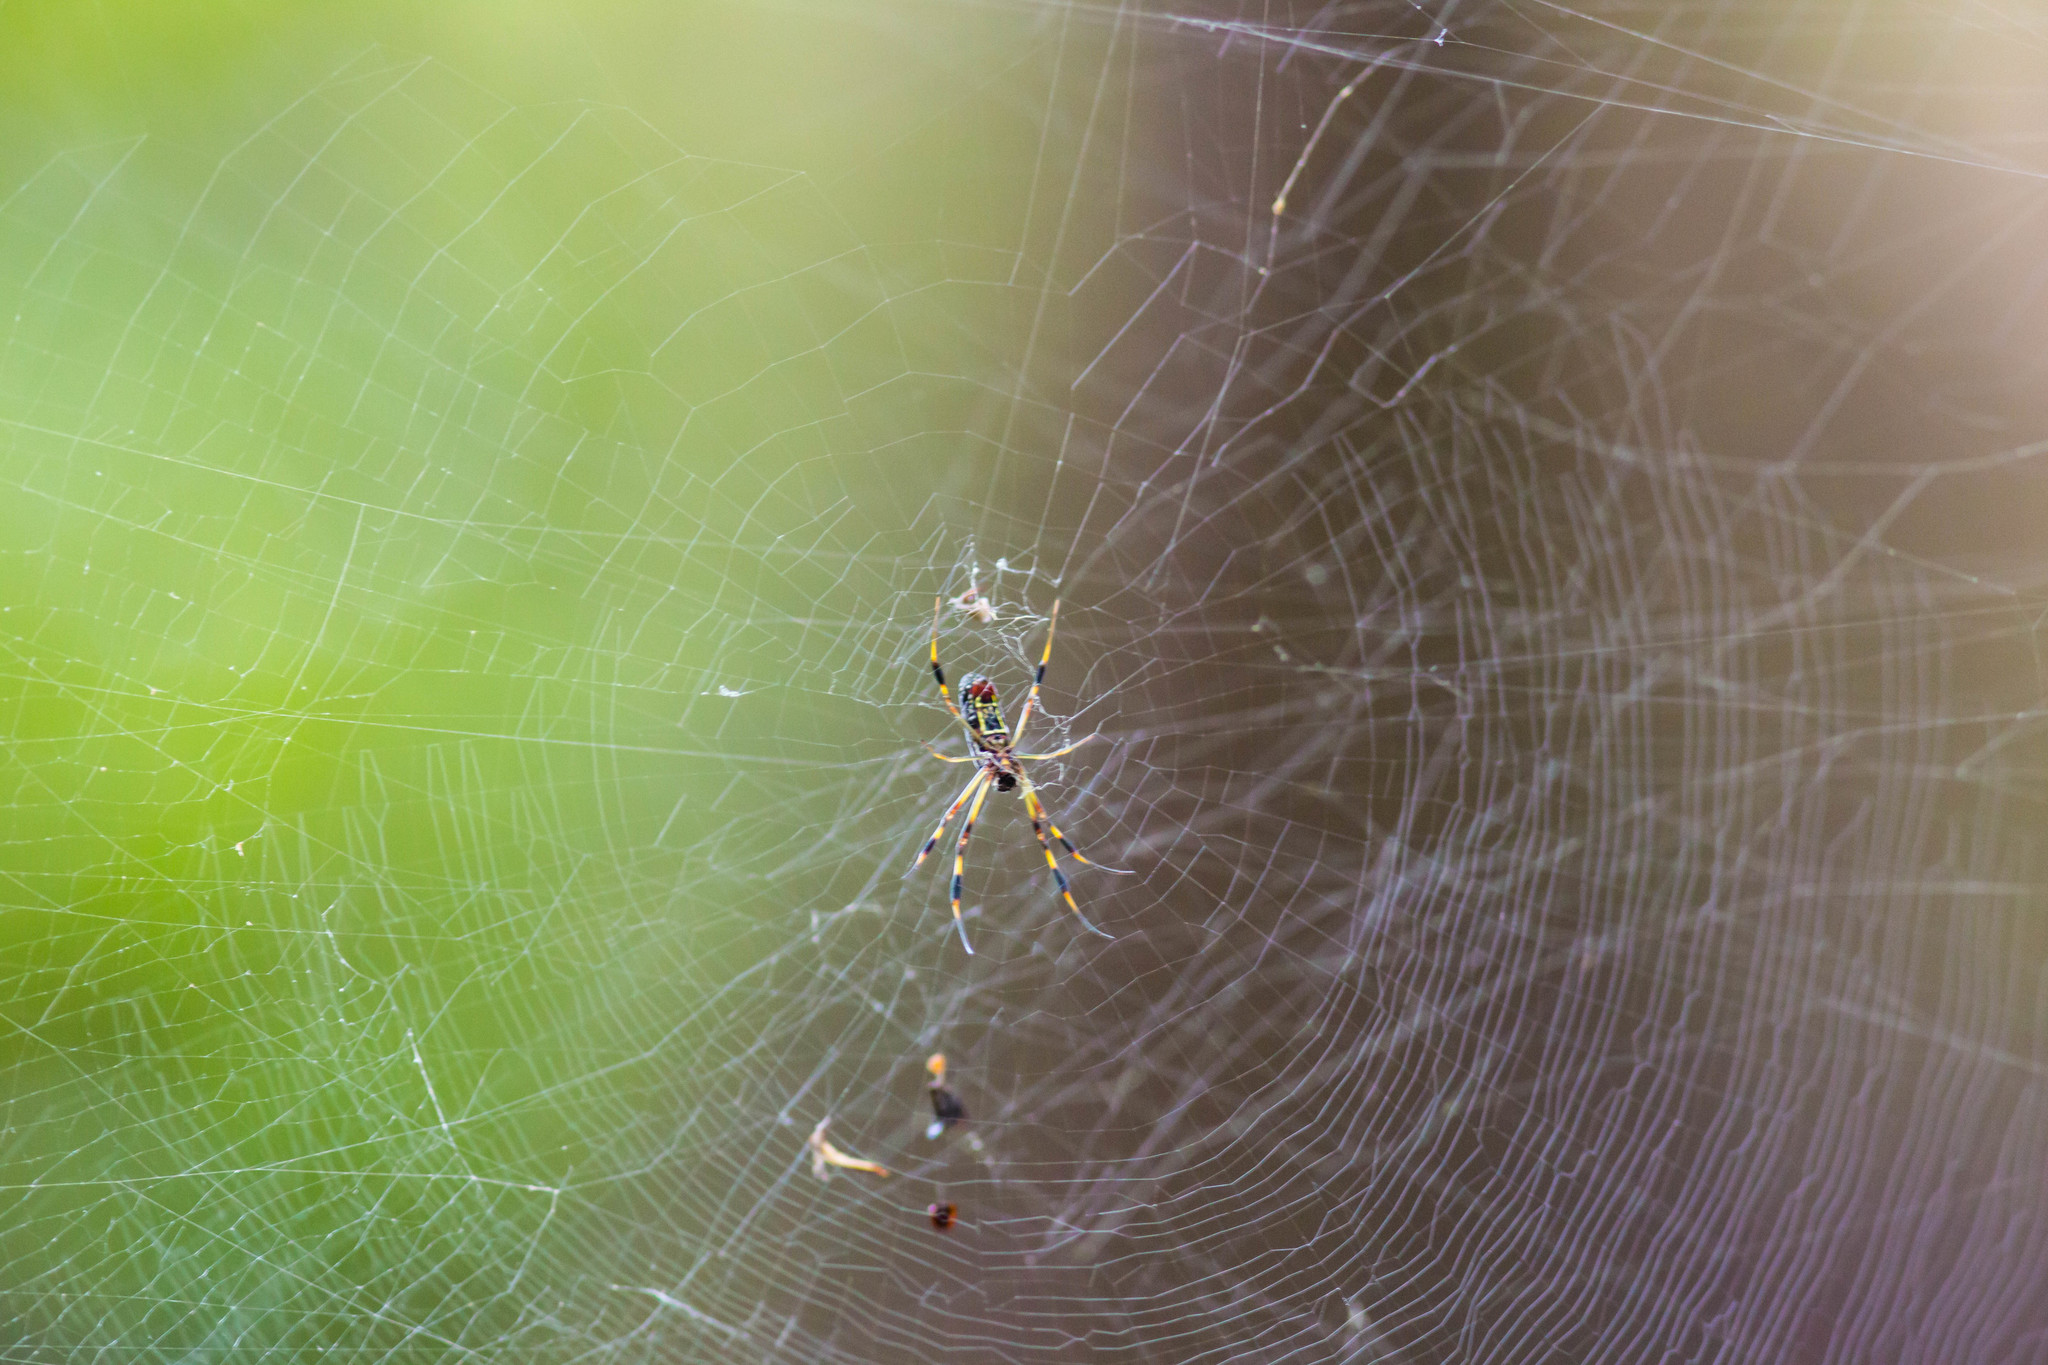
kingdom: Animalia
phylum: Arthropoda
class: Arachnida
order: Araneae
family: Araneidae
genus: Trichonephila
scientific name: Trichonephila clavipes
